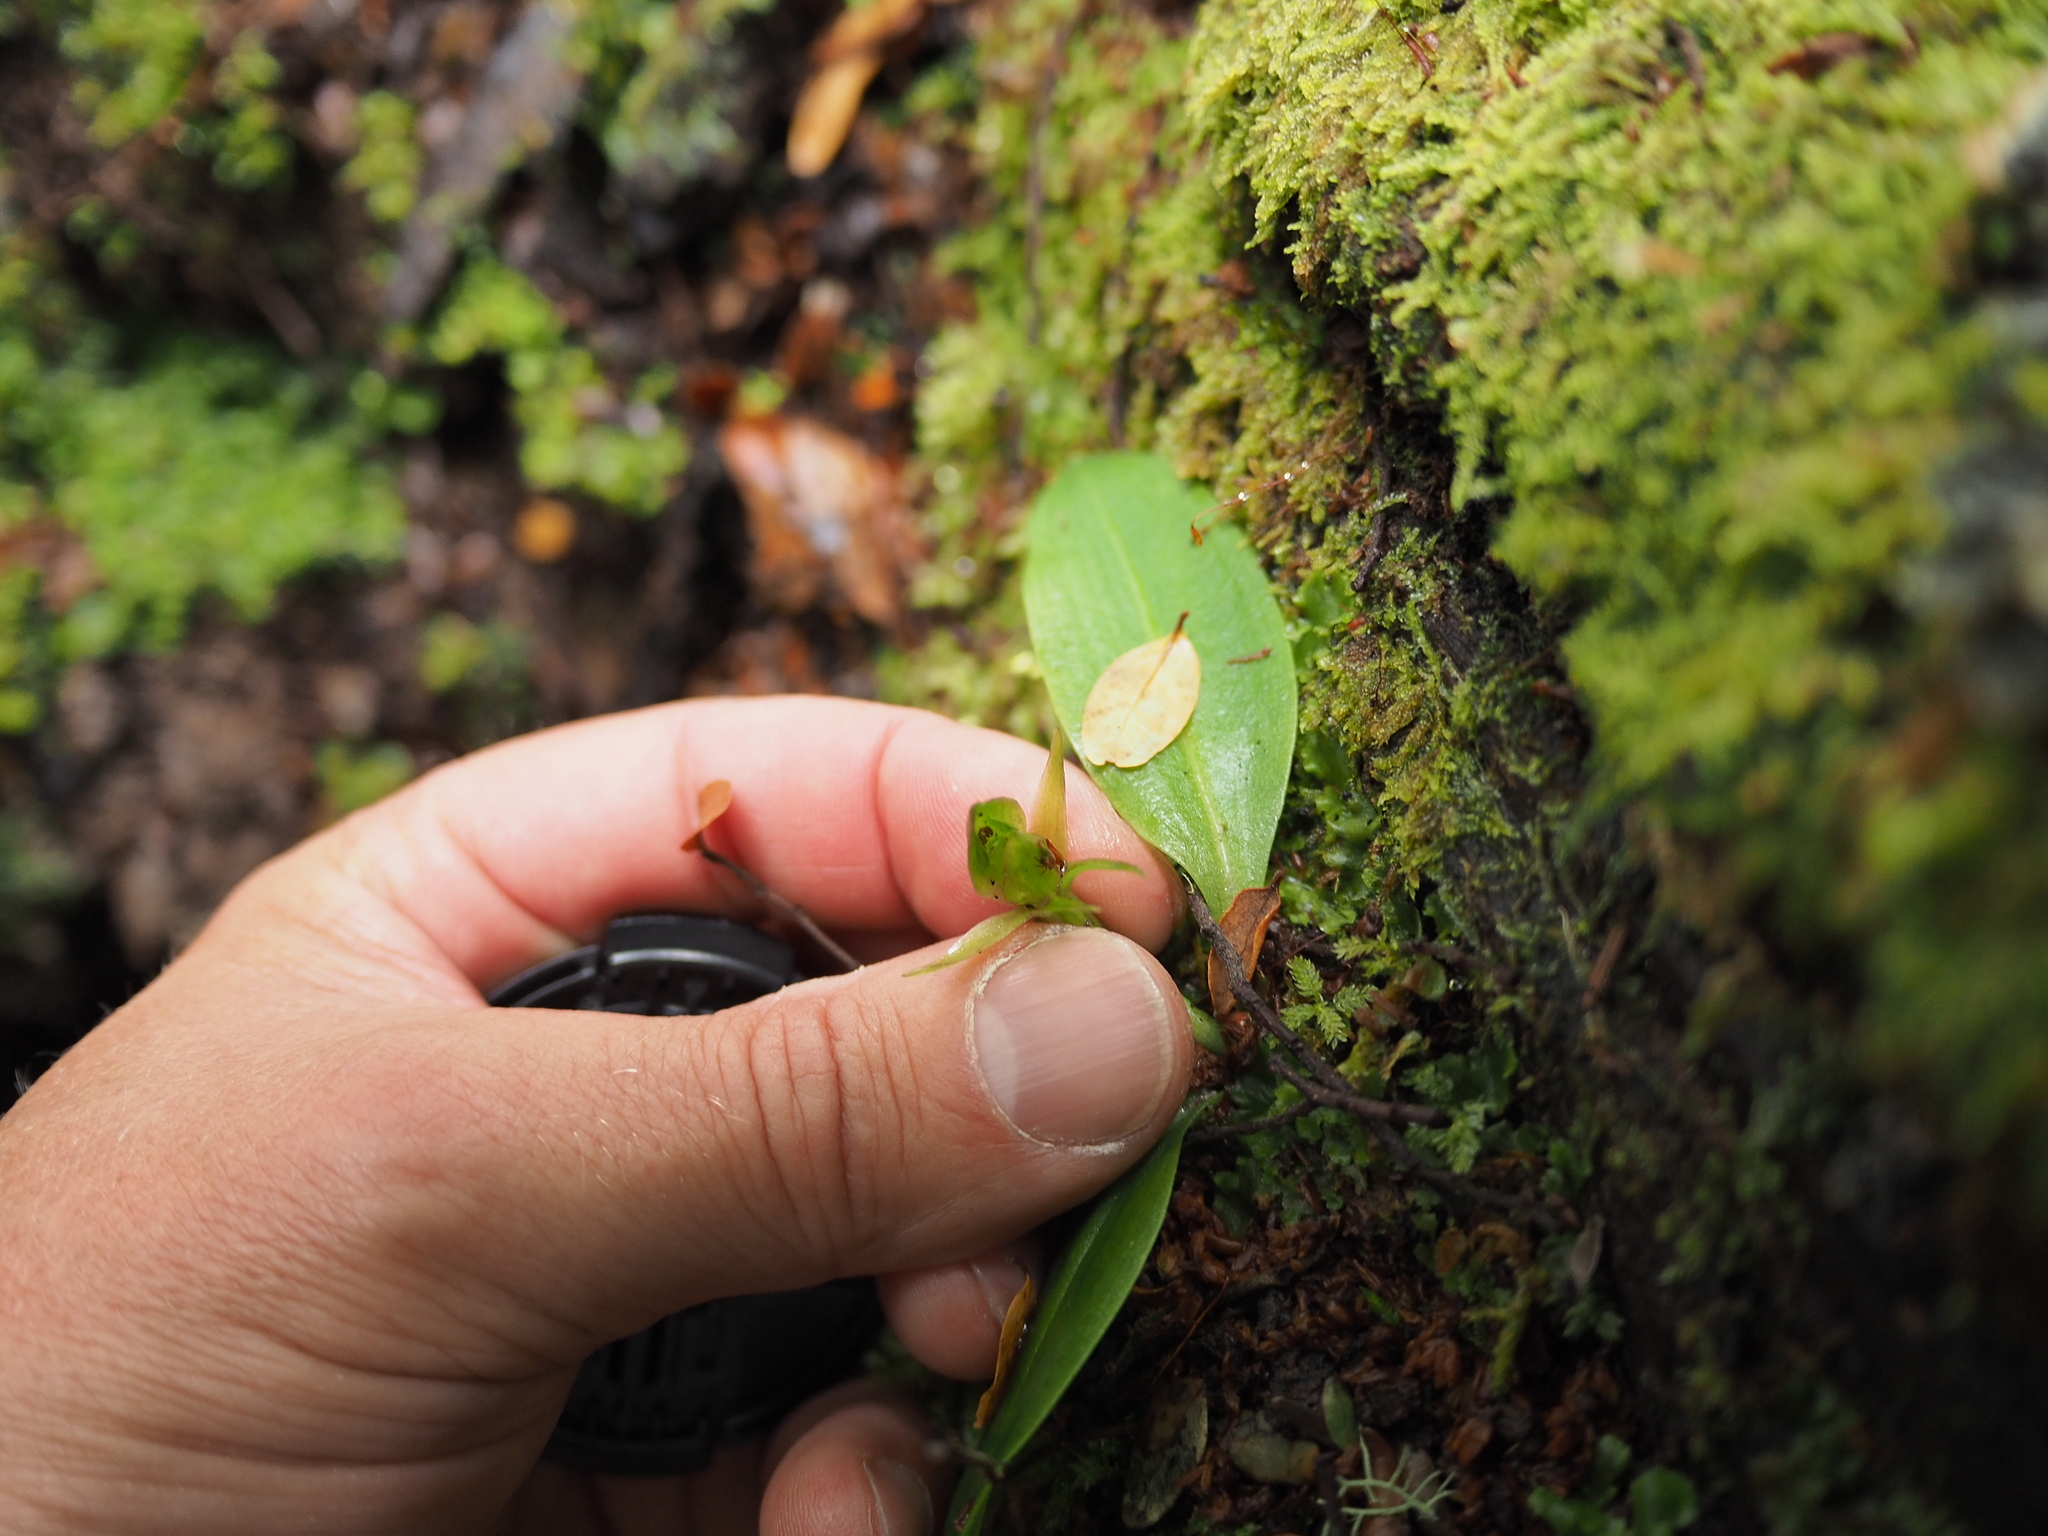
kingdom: Plantae
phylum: Tracheophyta
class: Liliopsida
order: Asparagales
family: Orchidaceae
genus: Chiloglottis
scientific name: Chiloglottis cornuta
